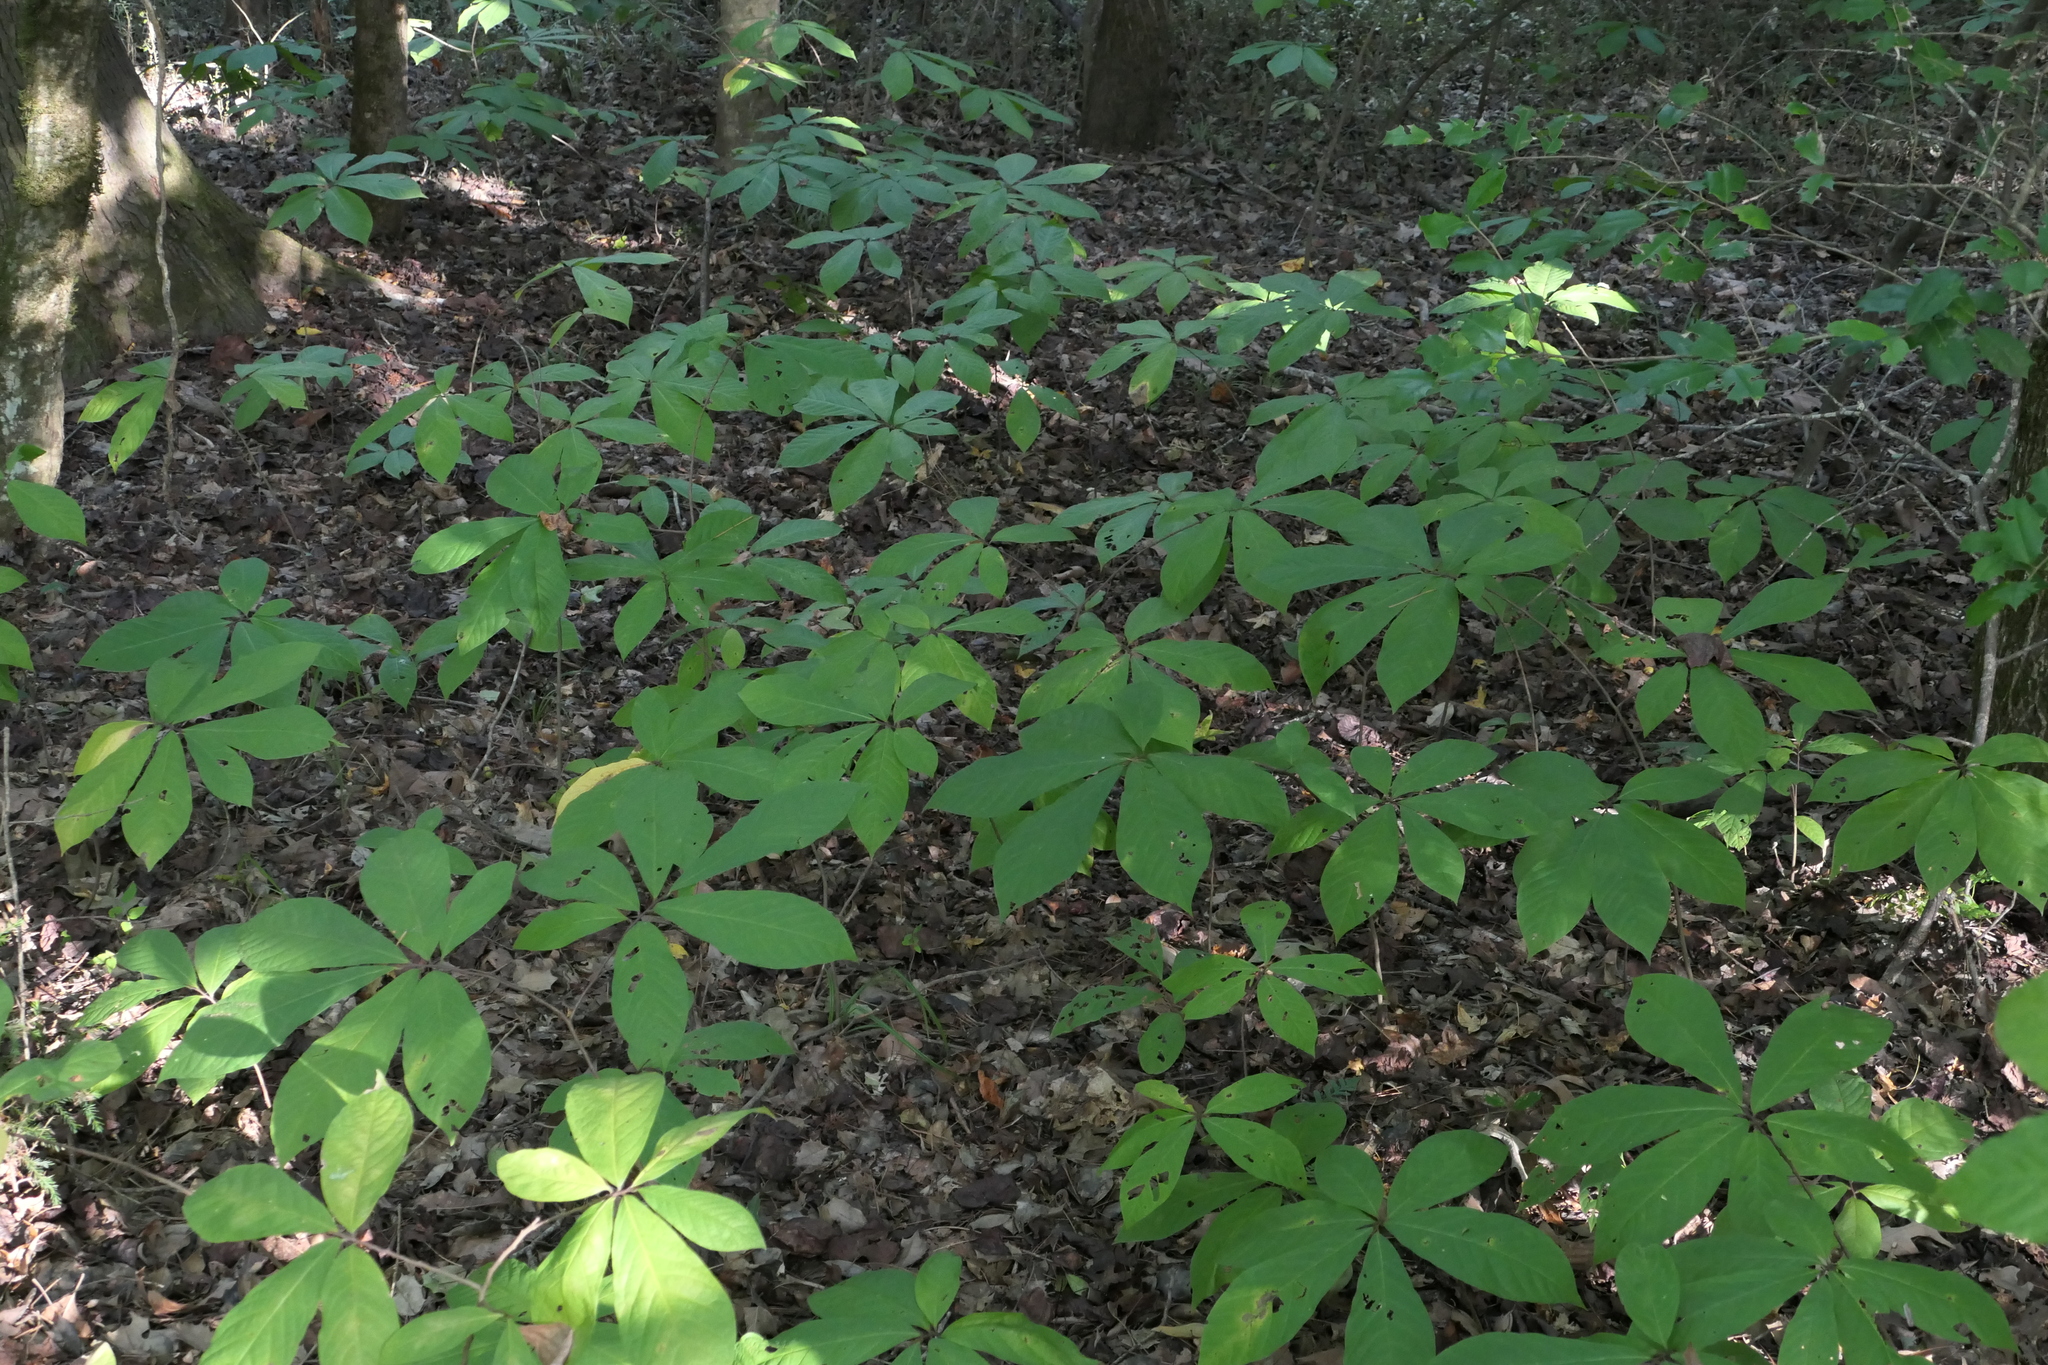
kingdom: Plantae
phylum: Tracheophyta
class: Magnoliopsida
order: Magnoliales
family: Annonaceae
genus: Asimina
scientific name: Asimina triloba
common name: Dog-banana
